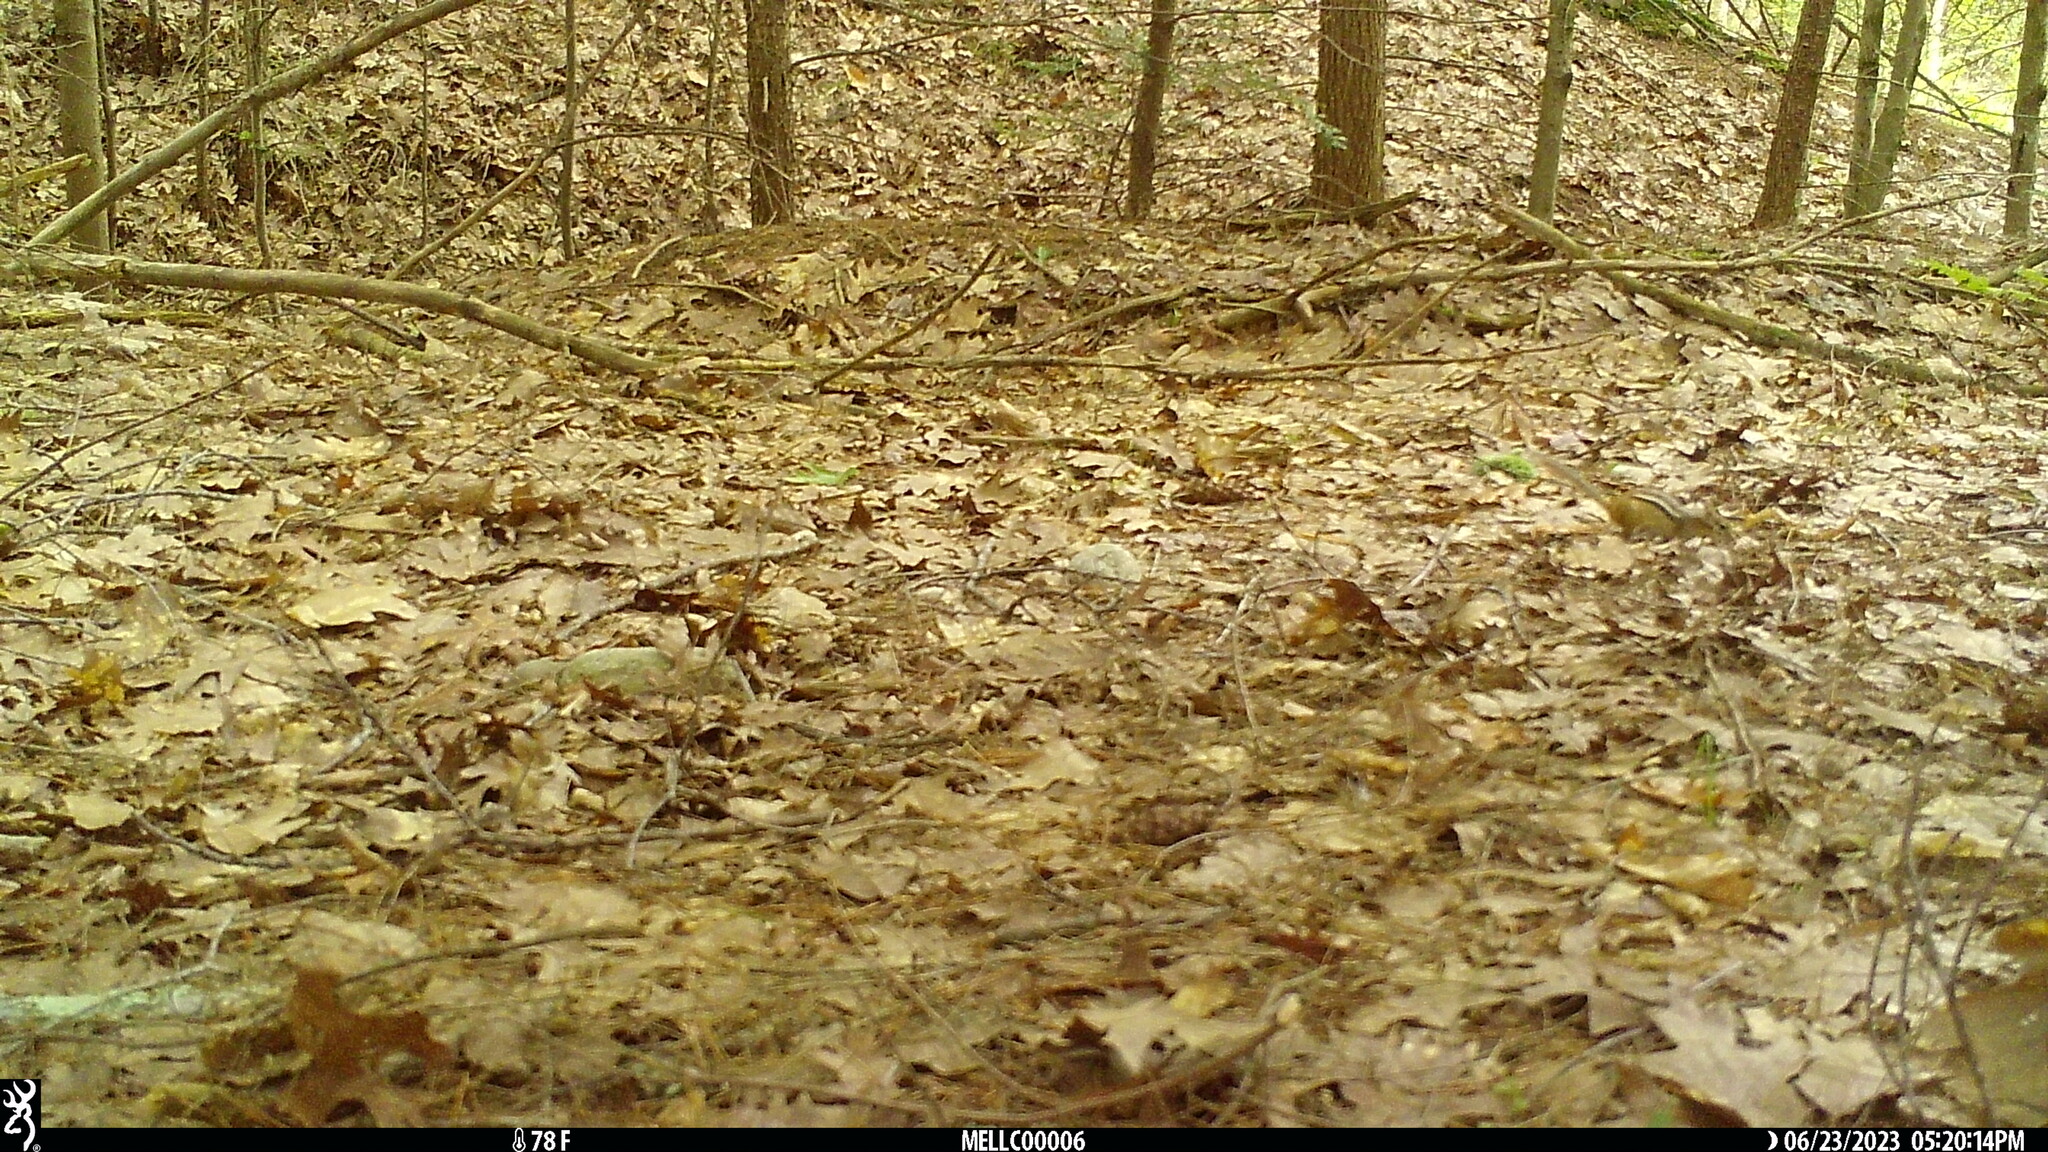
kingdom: Animalia
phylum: Chordata
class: Mammalia
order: Rodentia
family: Sciuridae
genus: Tamias
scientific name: Tamias striatus
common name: Eastern chipmunk
